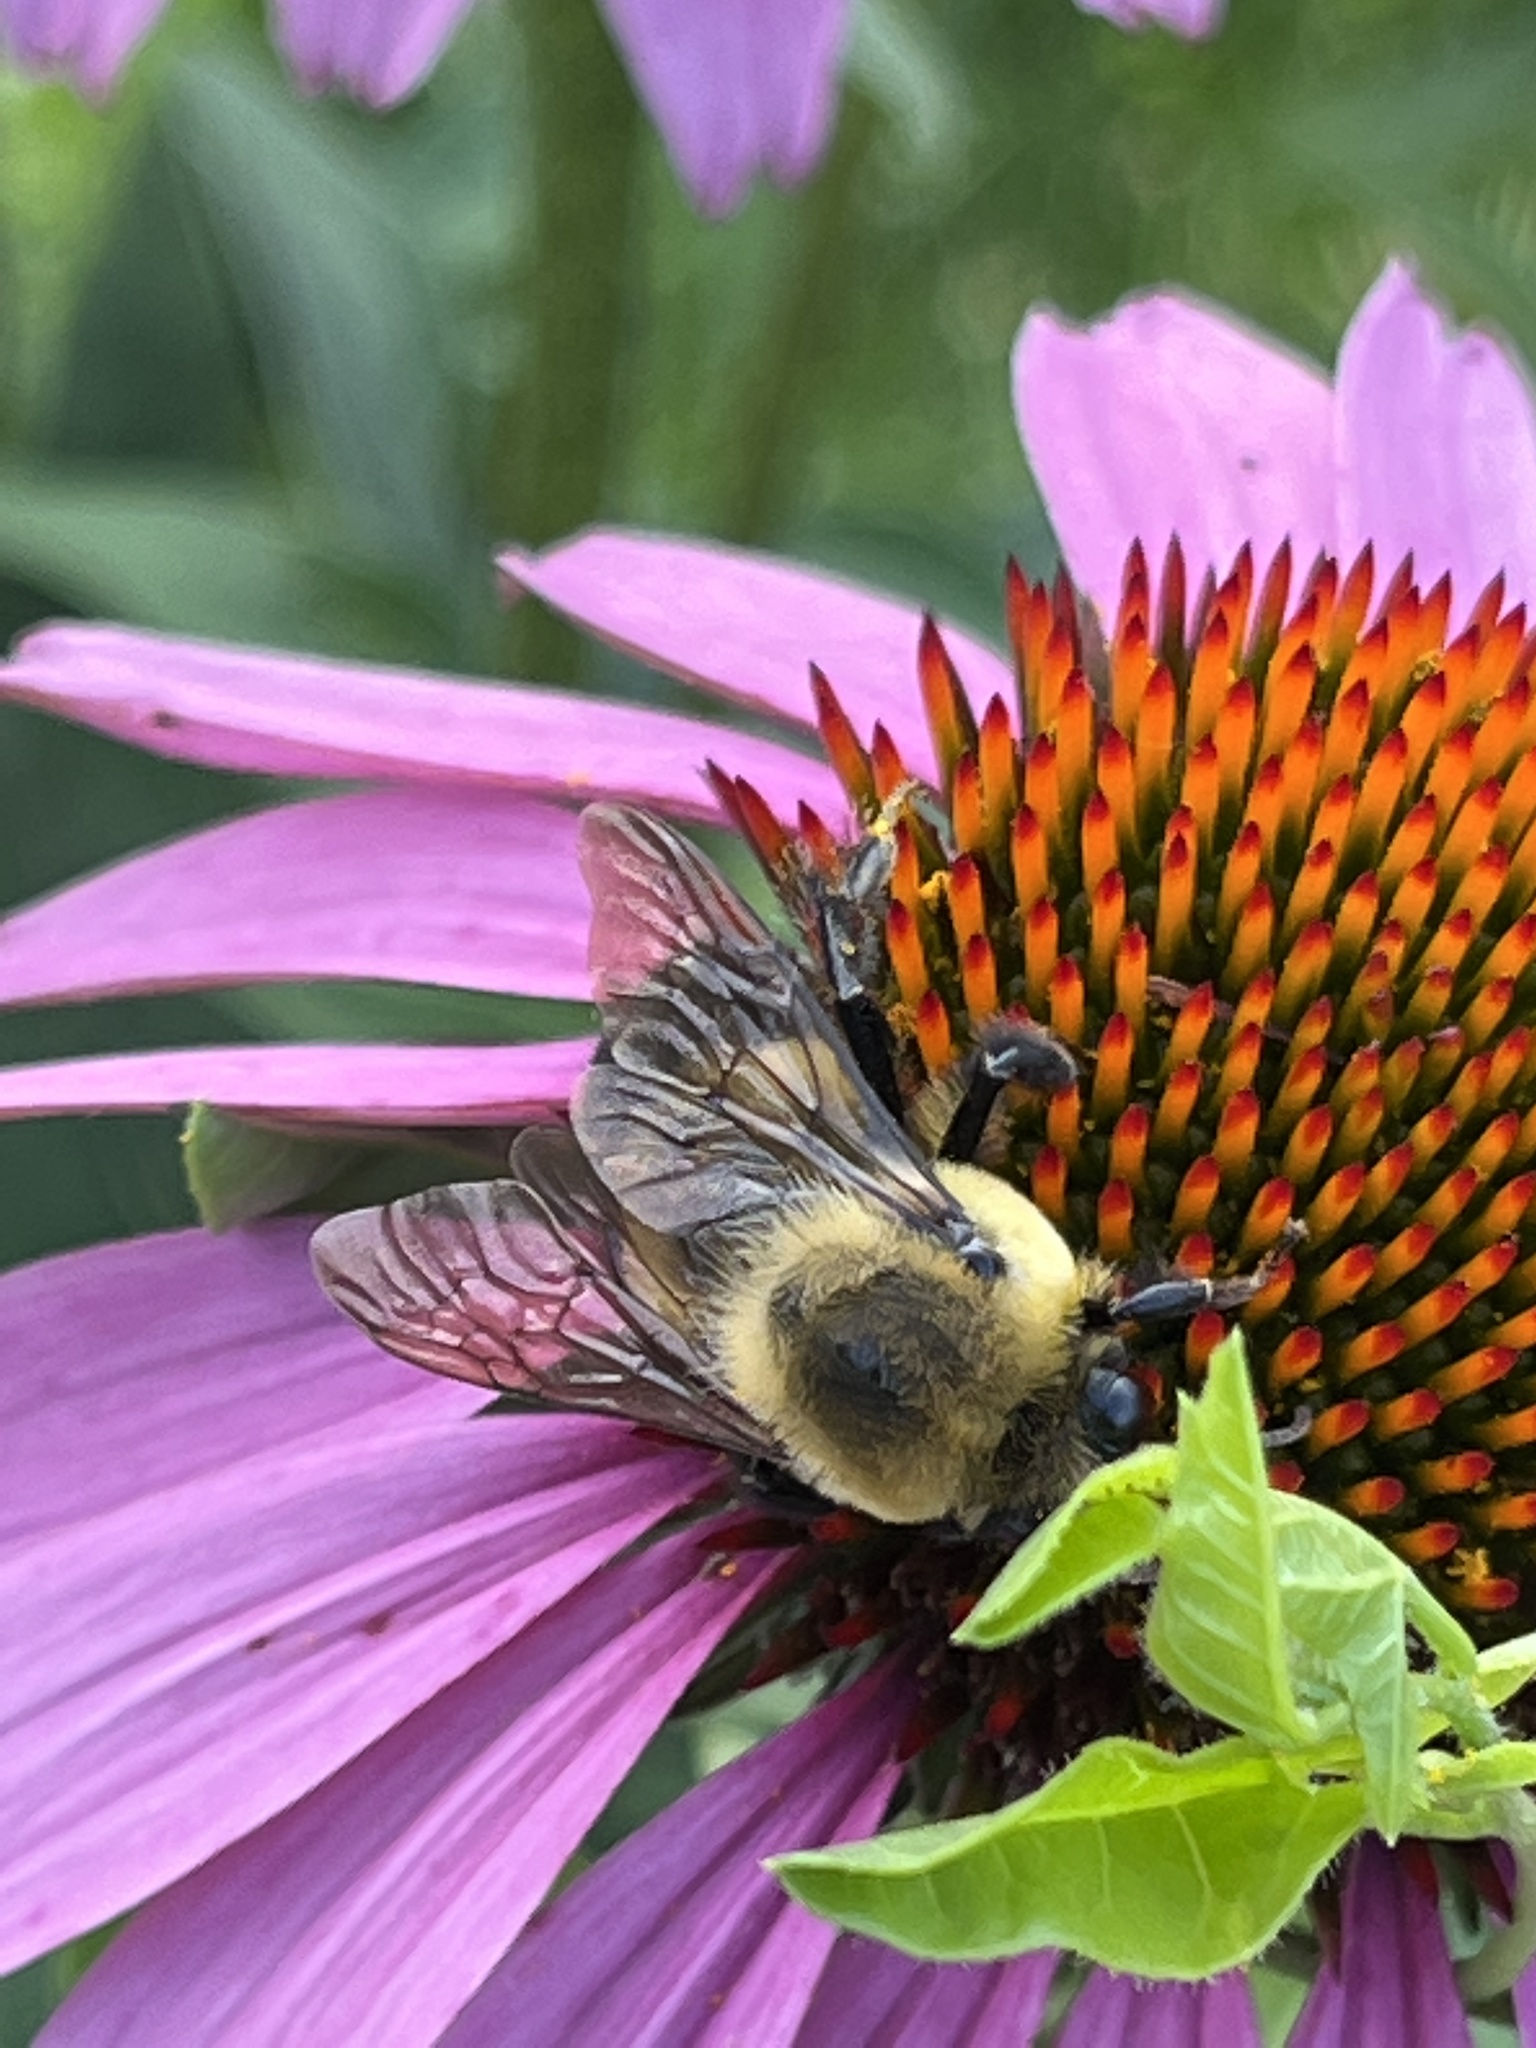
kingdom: Animalia
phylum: Arthropoda
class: Insecta
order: Hymenoptera
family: Apidae
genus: Bombus
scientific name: Bombus griseocollis
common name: Brown-belted bumble bee
